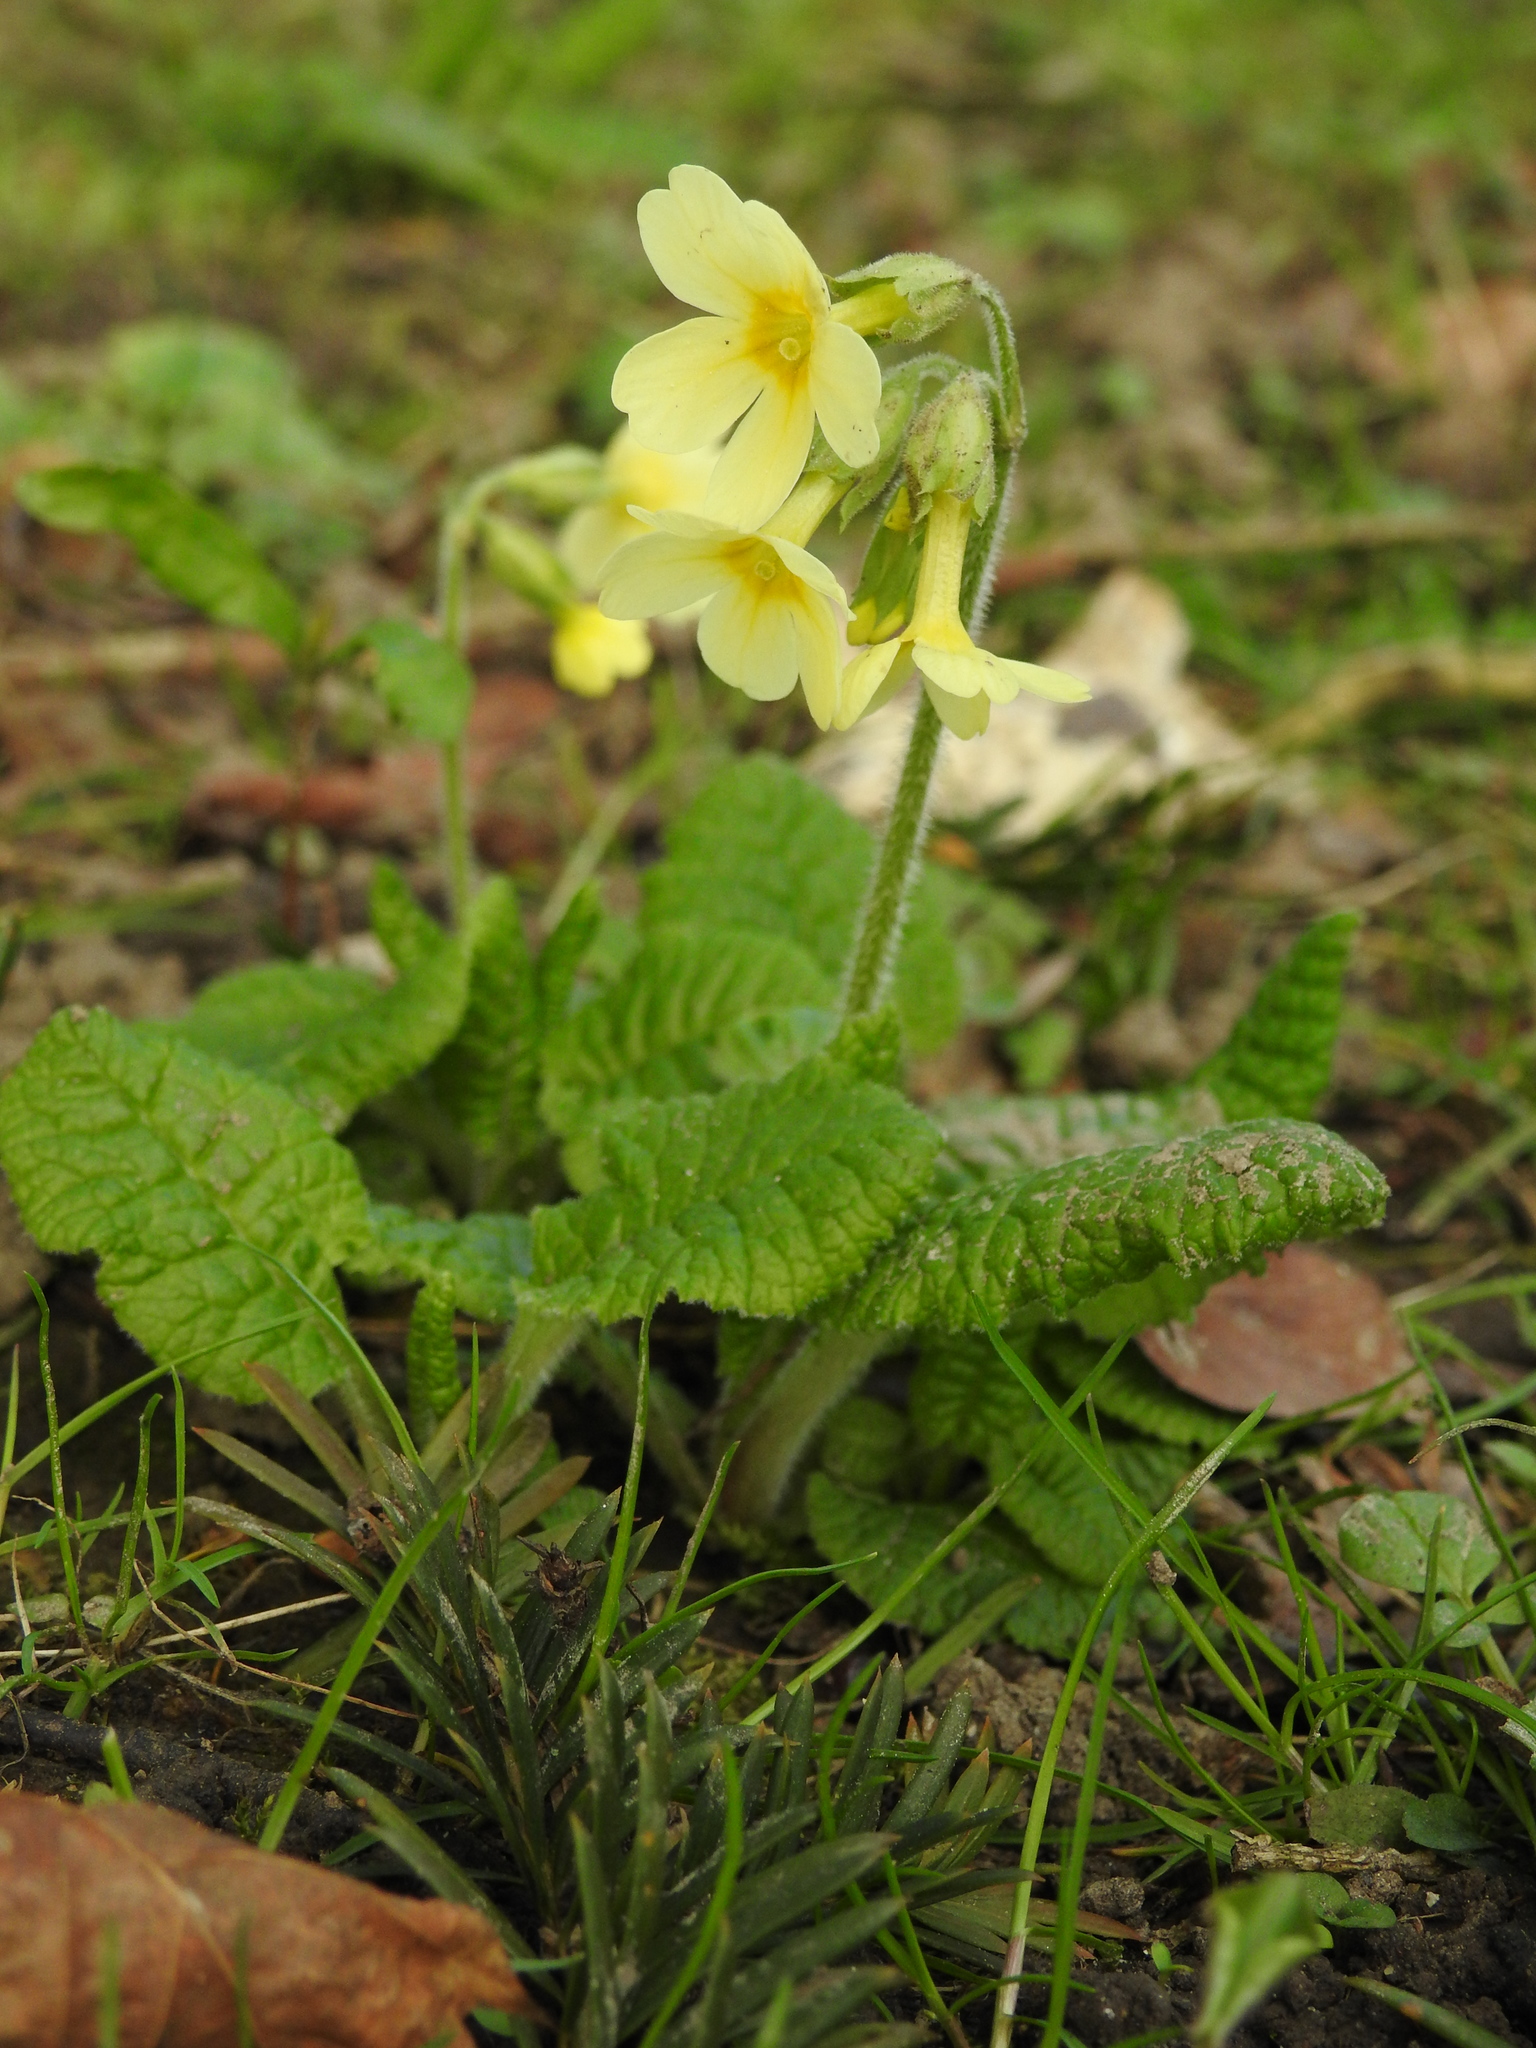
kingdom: Plantae
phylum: Tracheophyta
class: Magnoliopsida
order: Ericales
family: Primulaceae
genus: Primula
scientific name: Primula elatior
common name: Oxlip
